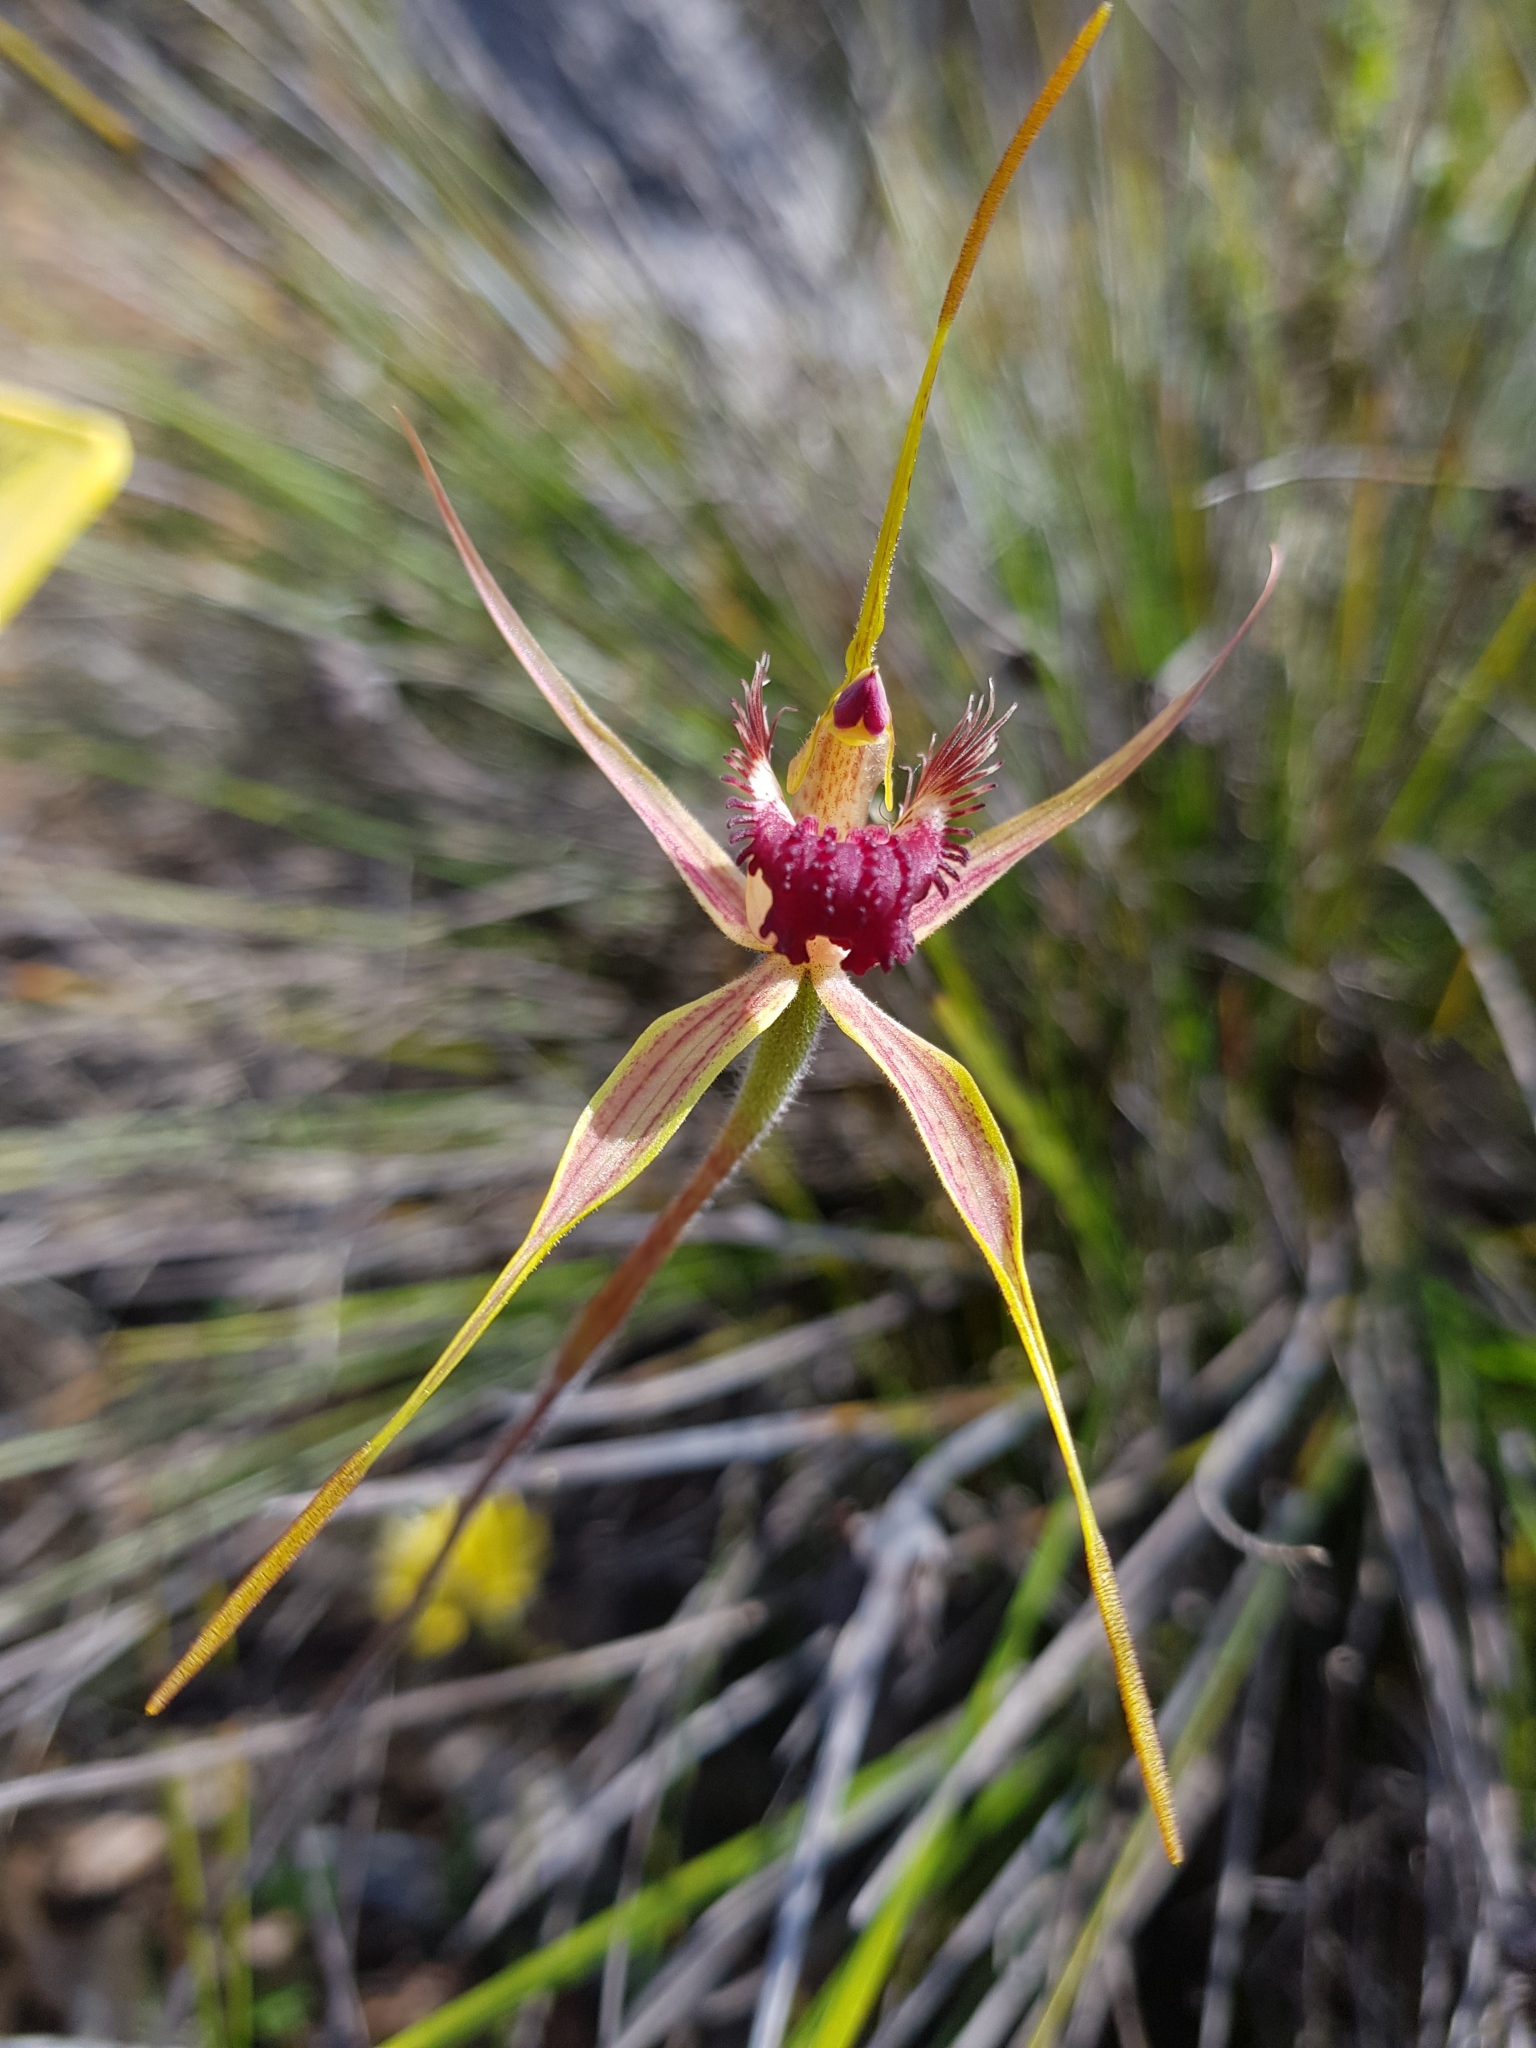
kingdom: Plantae
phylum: Tracheophyta
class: Liliopsida
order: Asparagales
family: Orchidaceae
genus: Caladenia
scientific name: Caladenia pectinata
